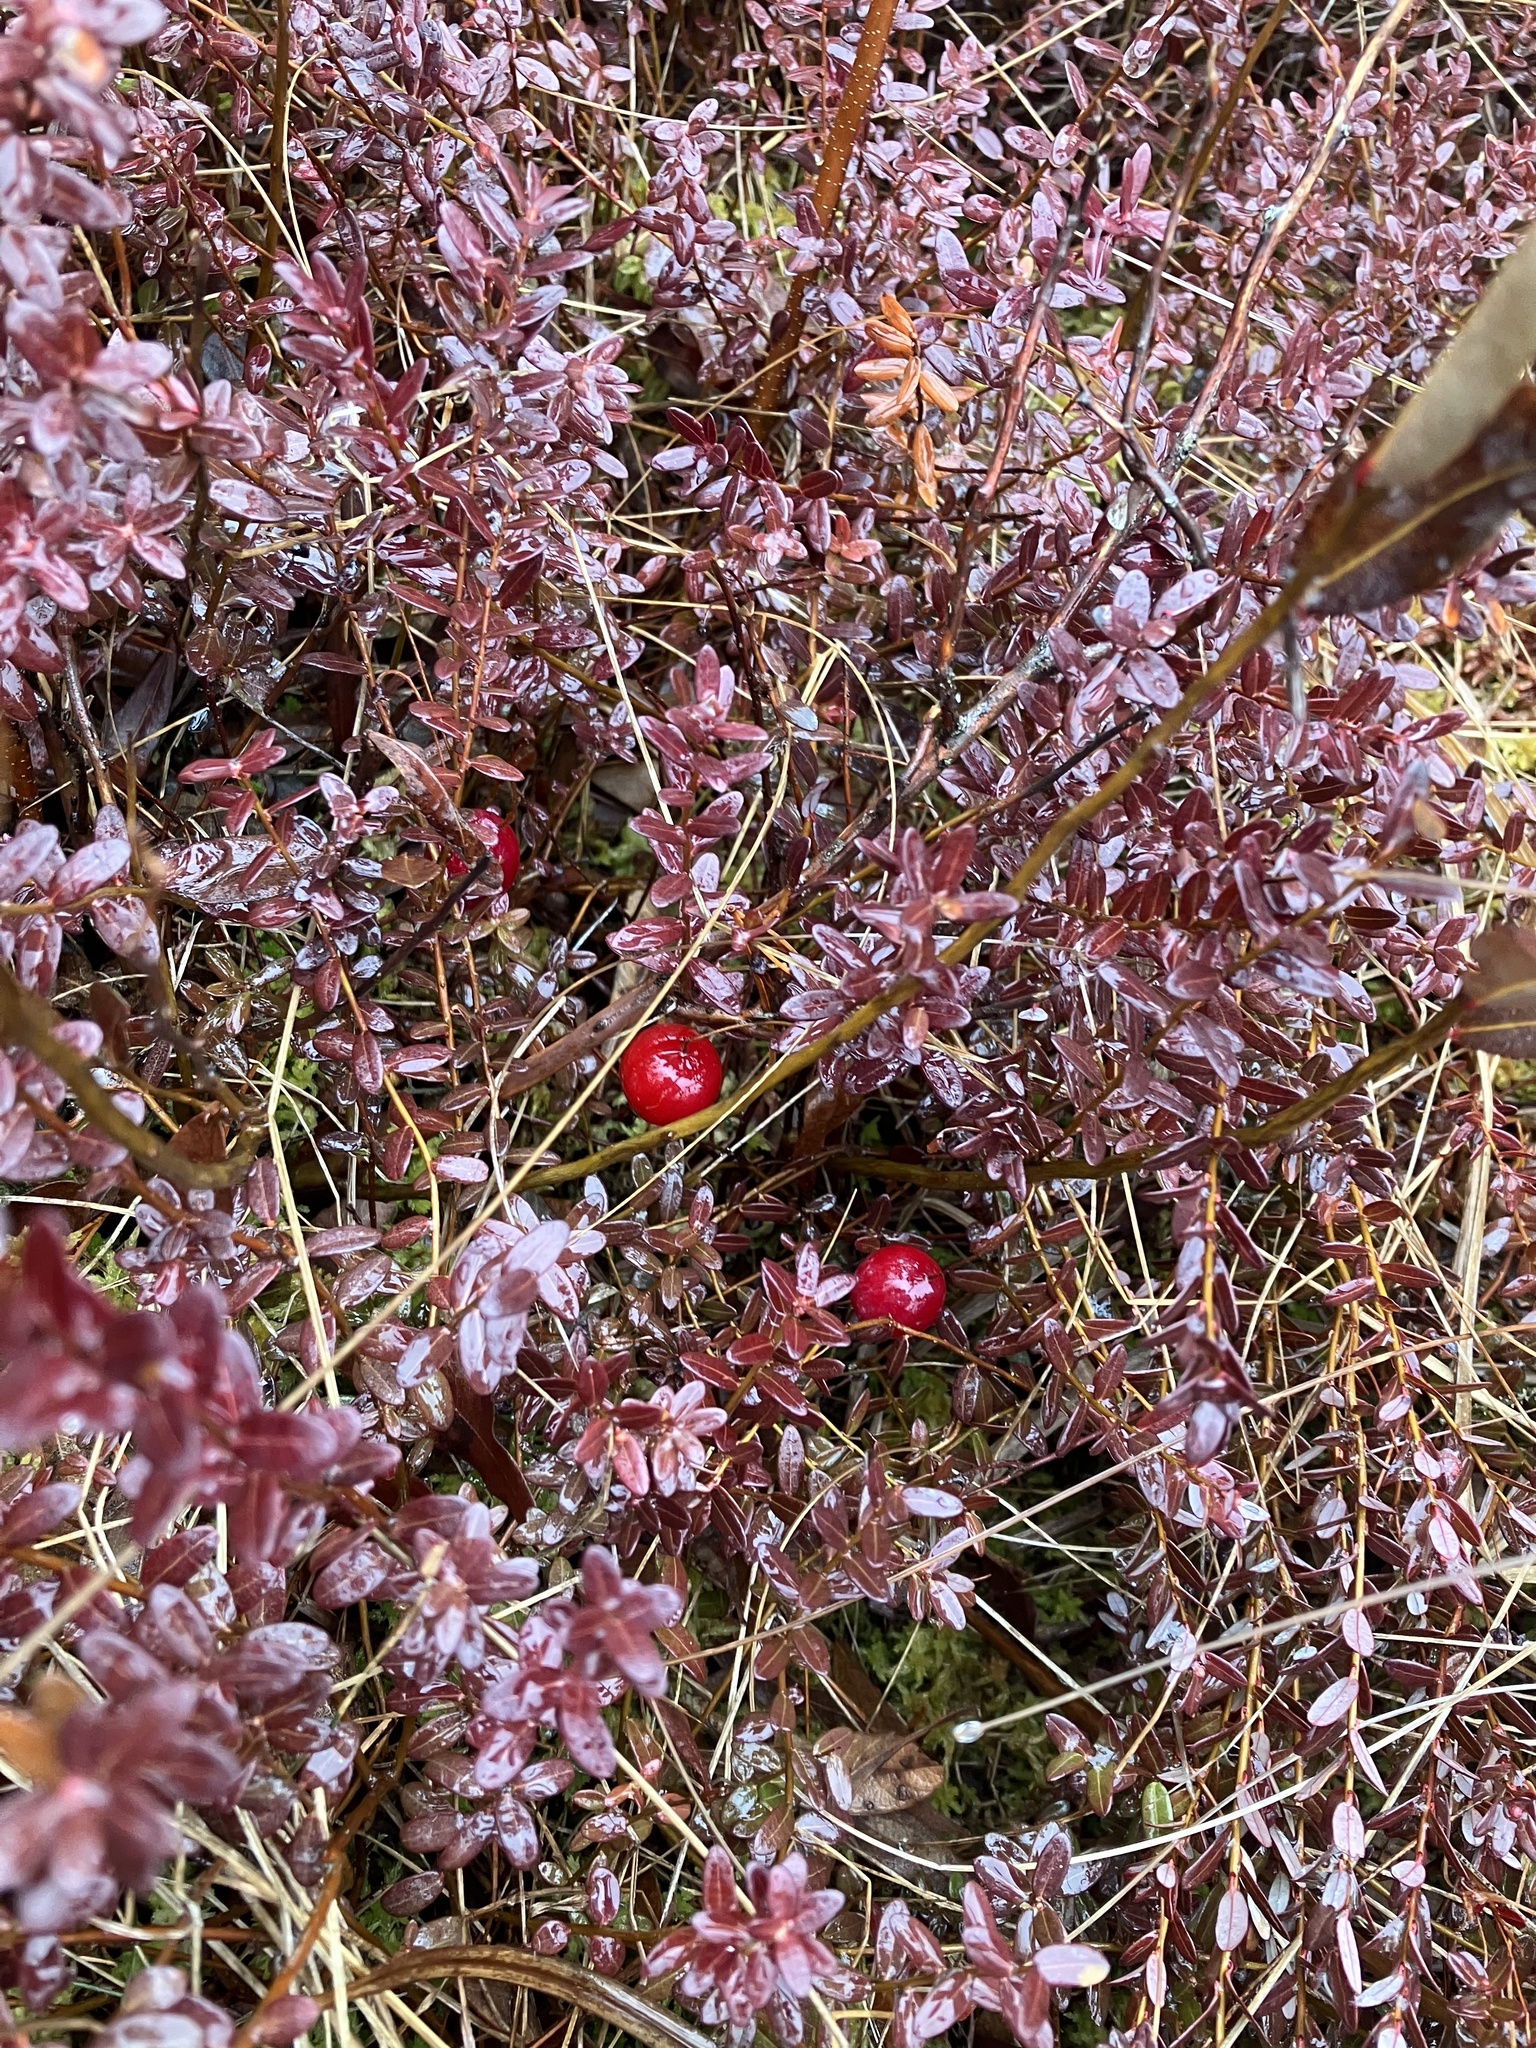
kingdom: Plantae
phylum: Tracheophyta
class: Magnoliopsida
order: Ericales
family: Ericaceae
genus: Vaccinium
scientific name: Vaccinium macrocarpon
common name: American cranberry
